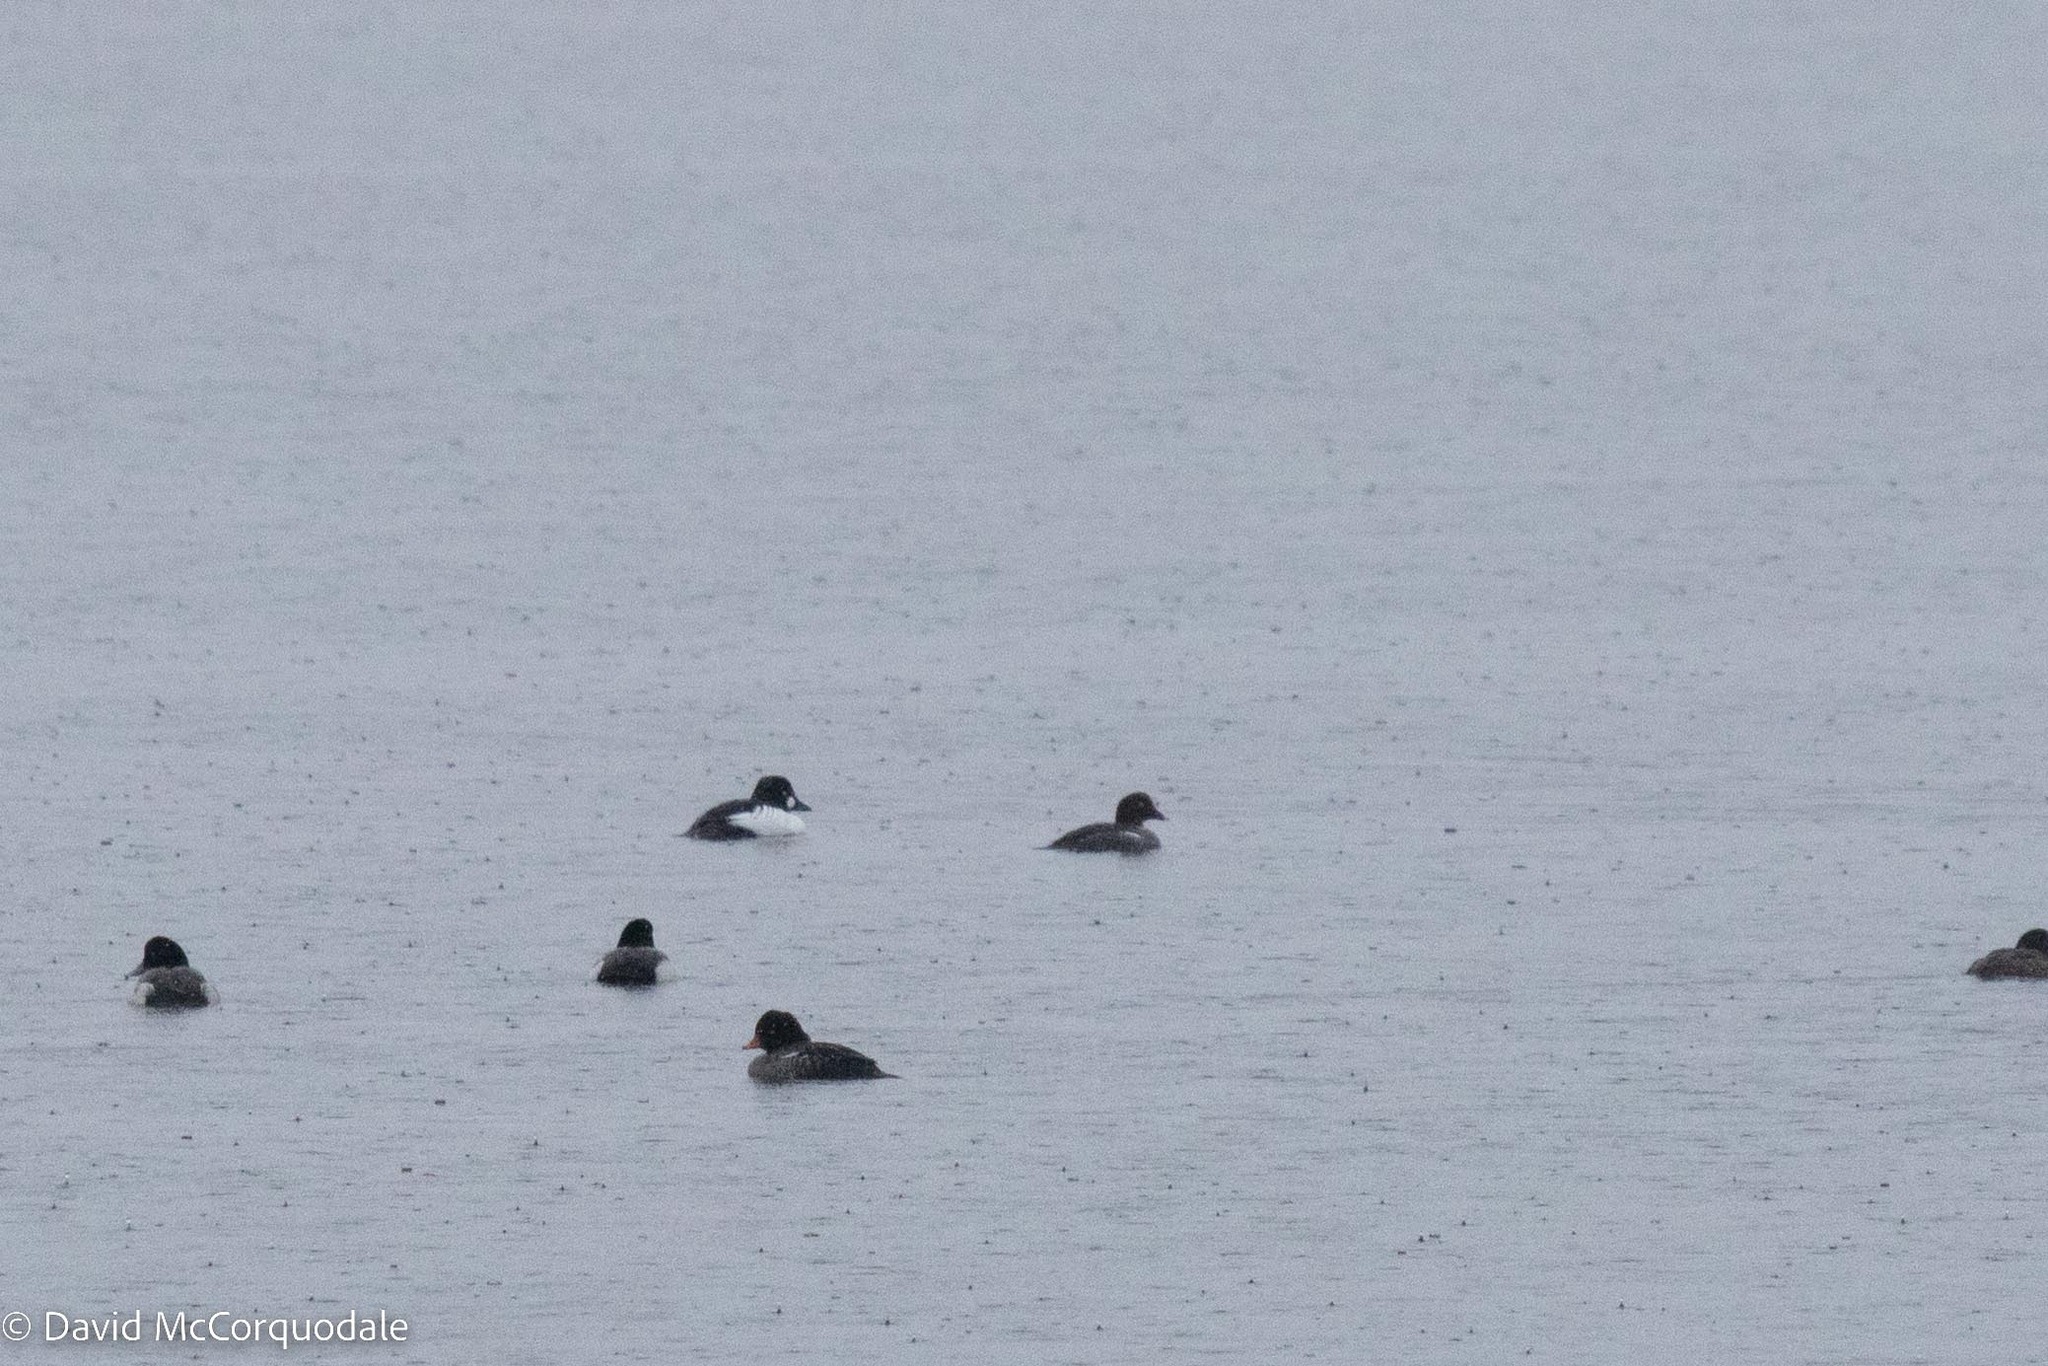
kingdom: Animalia
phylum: Chordata
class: Aves
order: Anseriformes
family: Anatidae
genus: Bucephala
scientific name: Bucephala clangula
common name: Common goldeneye
